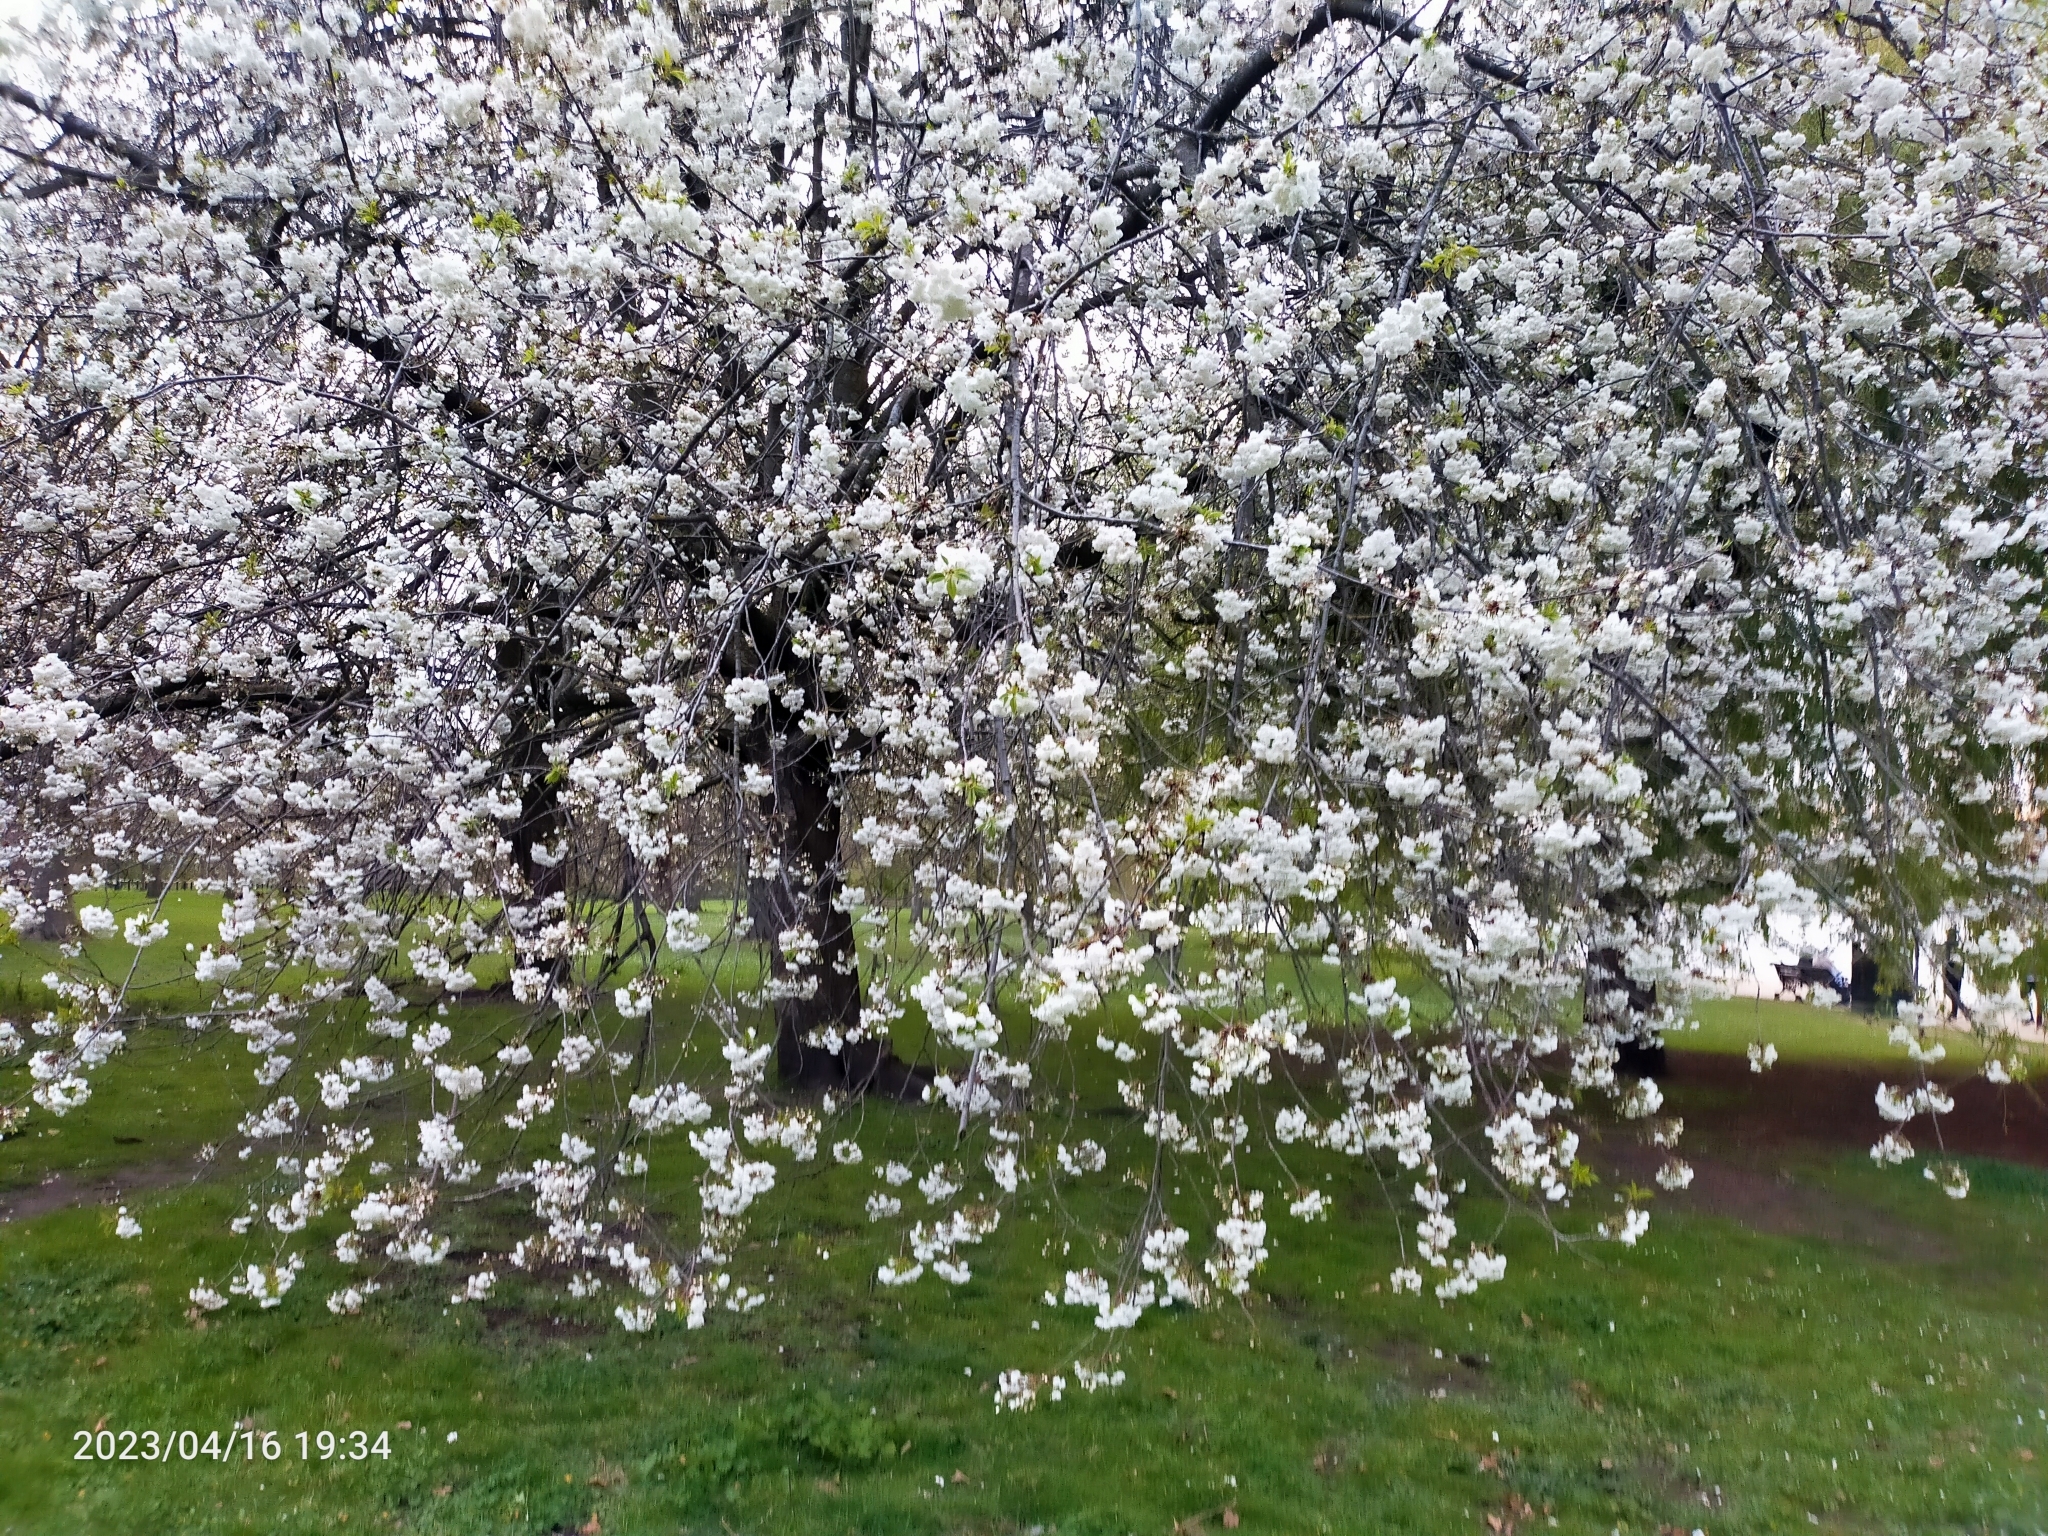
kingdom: Plantae
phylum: Tracheophyta
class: Magnoliopsida
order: Rosales
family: Rosaceae
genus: Prunus
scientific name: Prunus avium
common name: Sweet cherry
